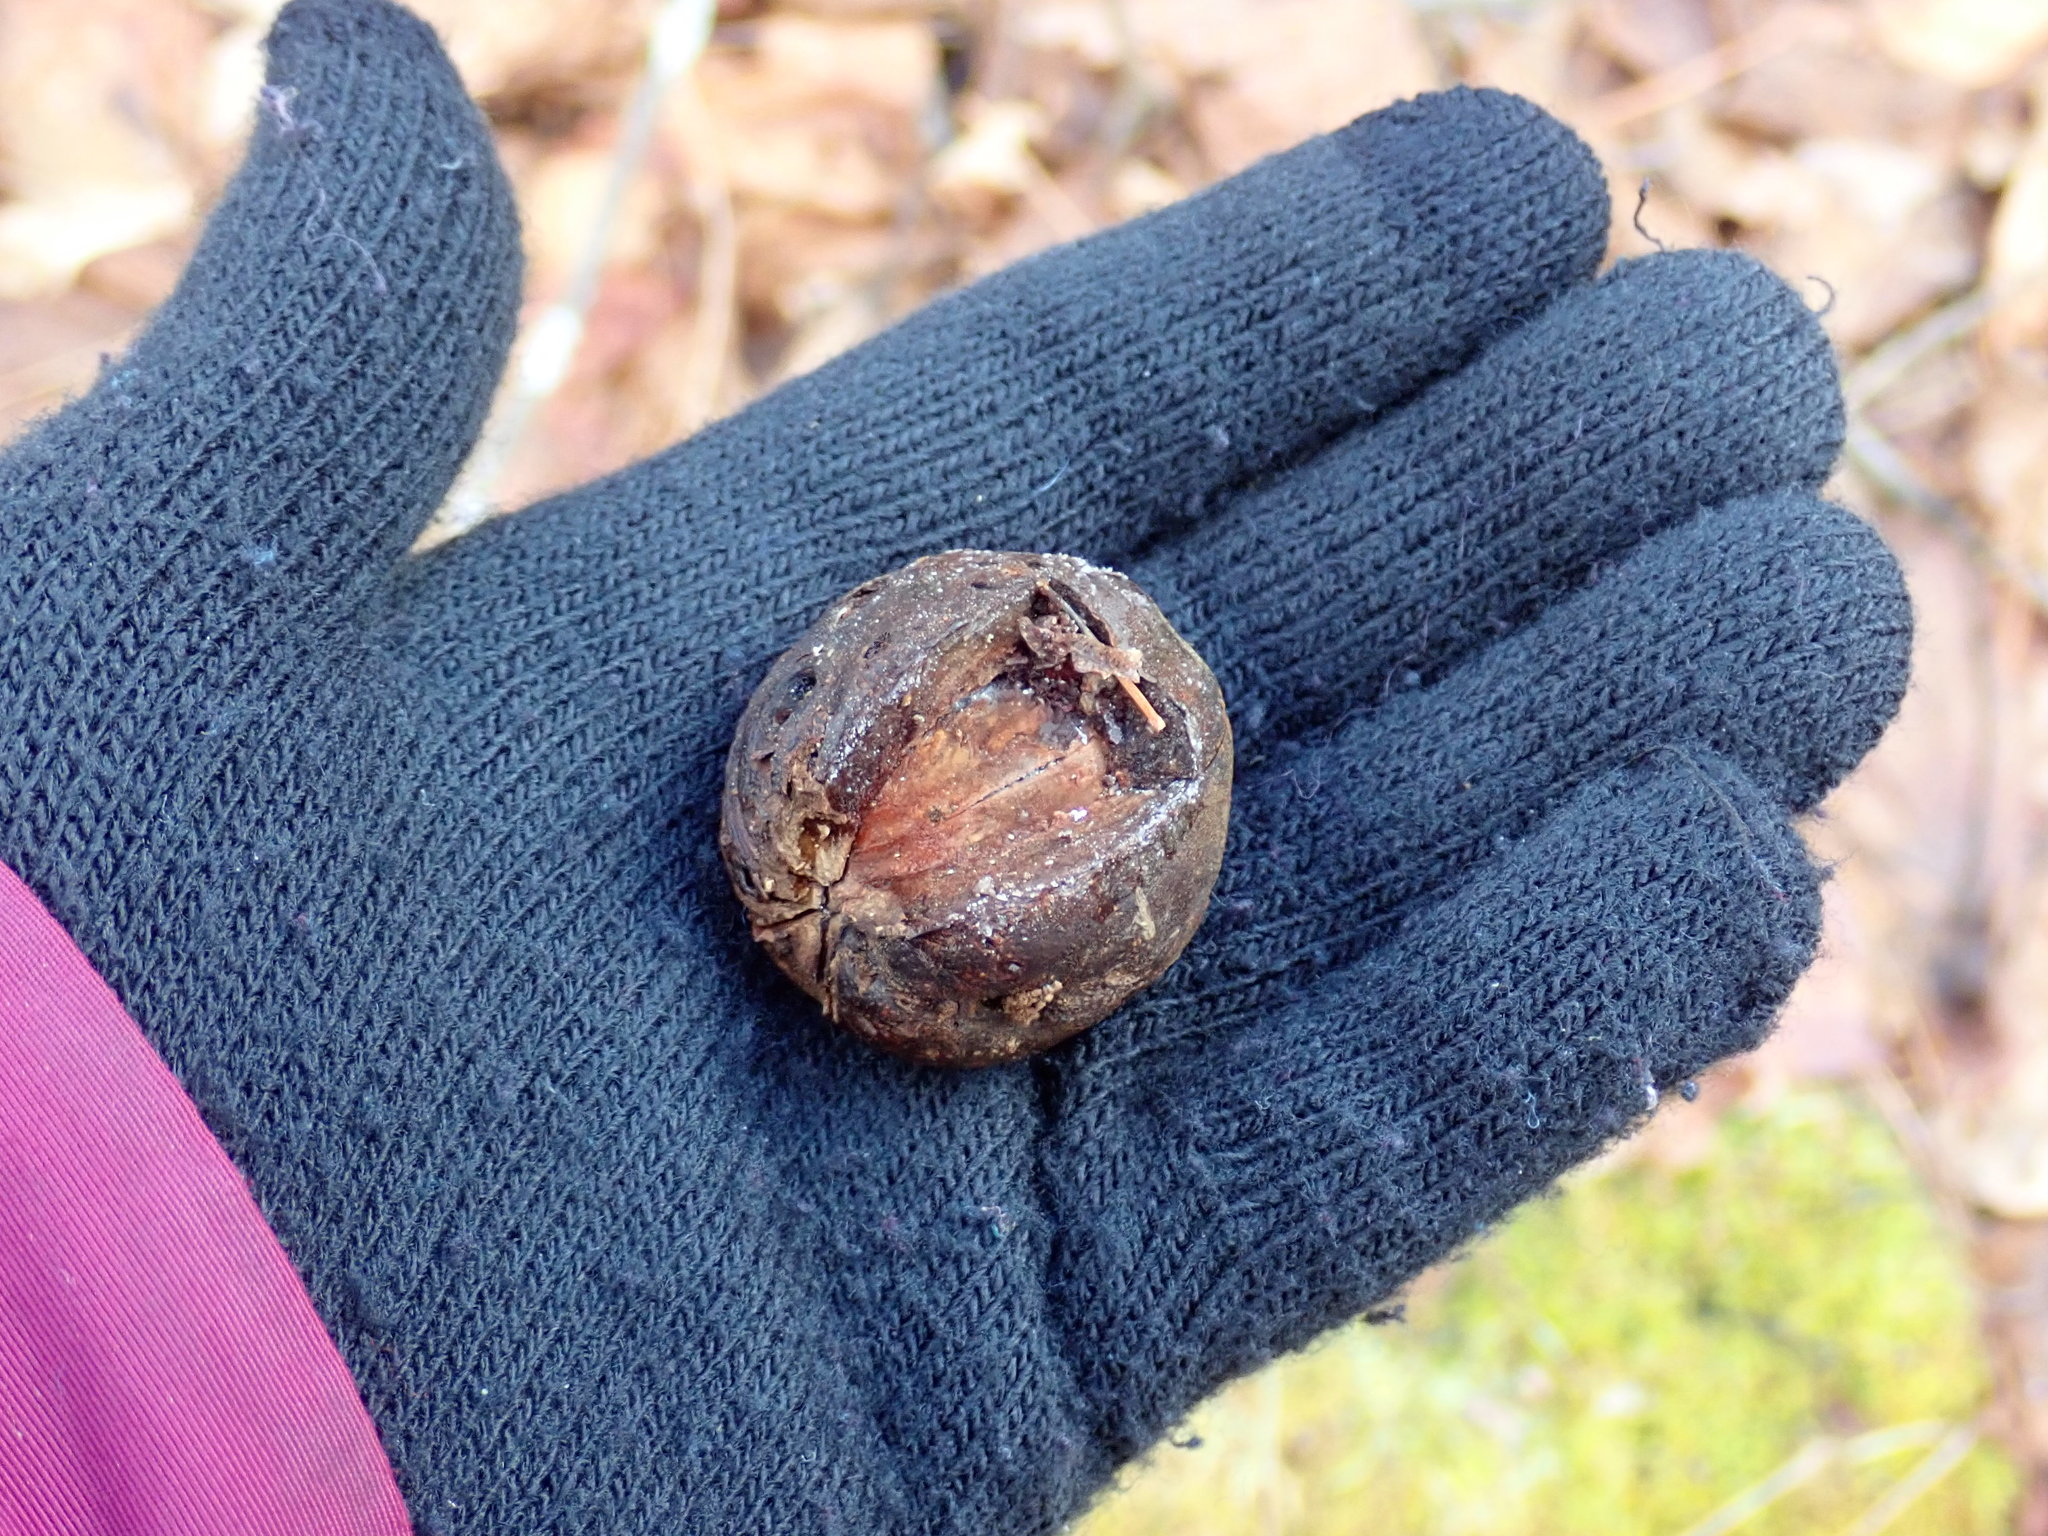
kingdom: Plantae
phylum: Tracheophyta
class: Magnoliopsida
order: Fagales
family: Juglandaceae
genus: Carya
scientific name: Carya
